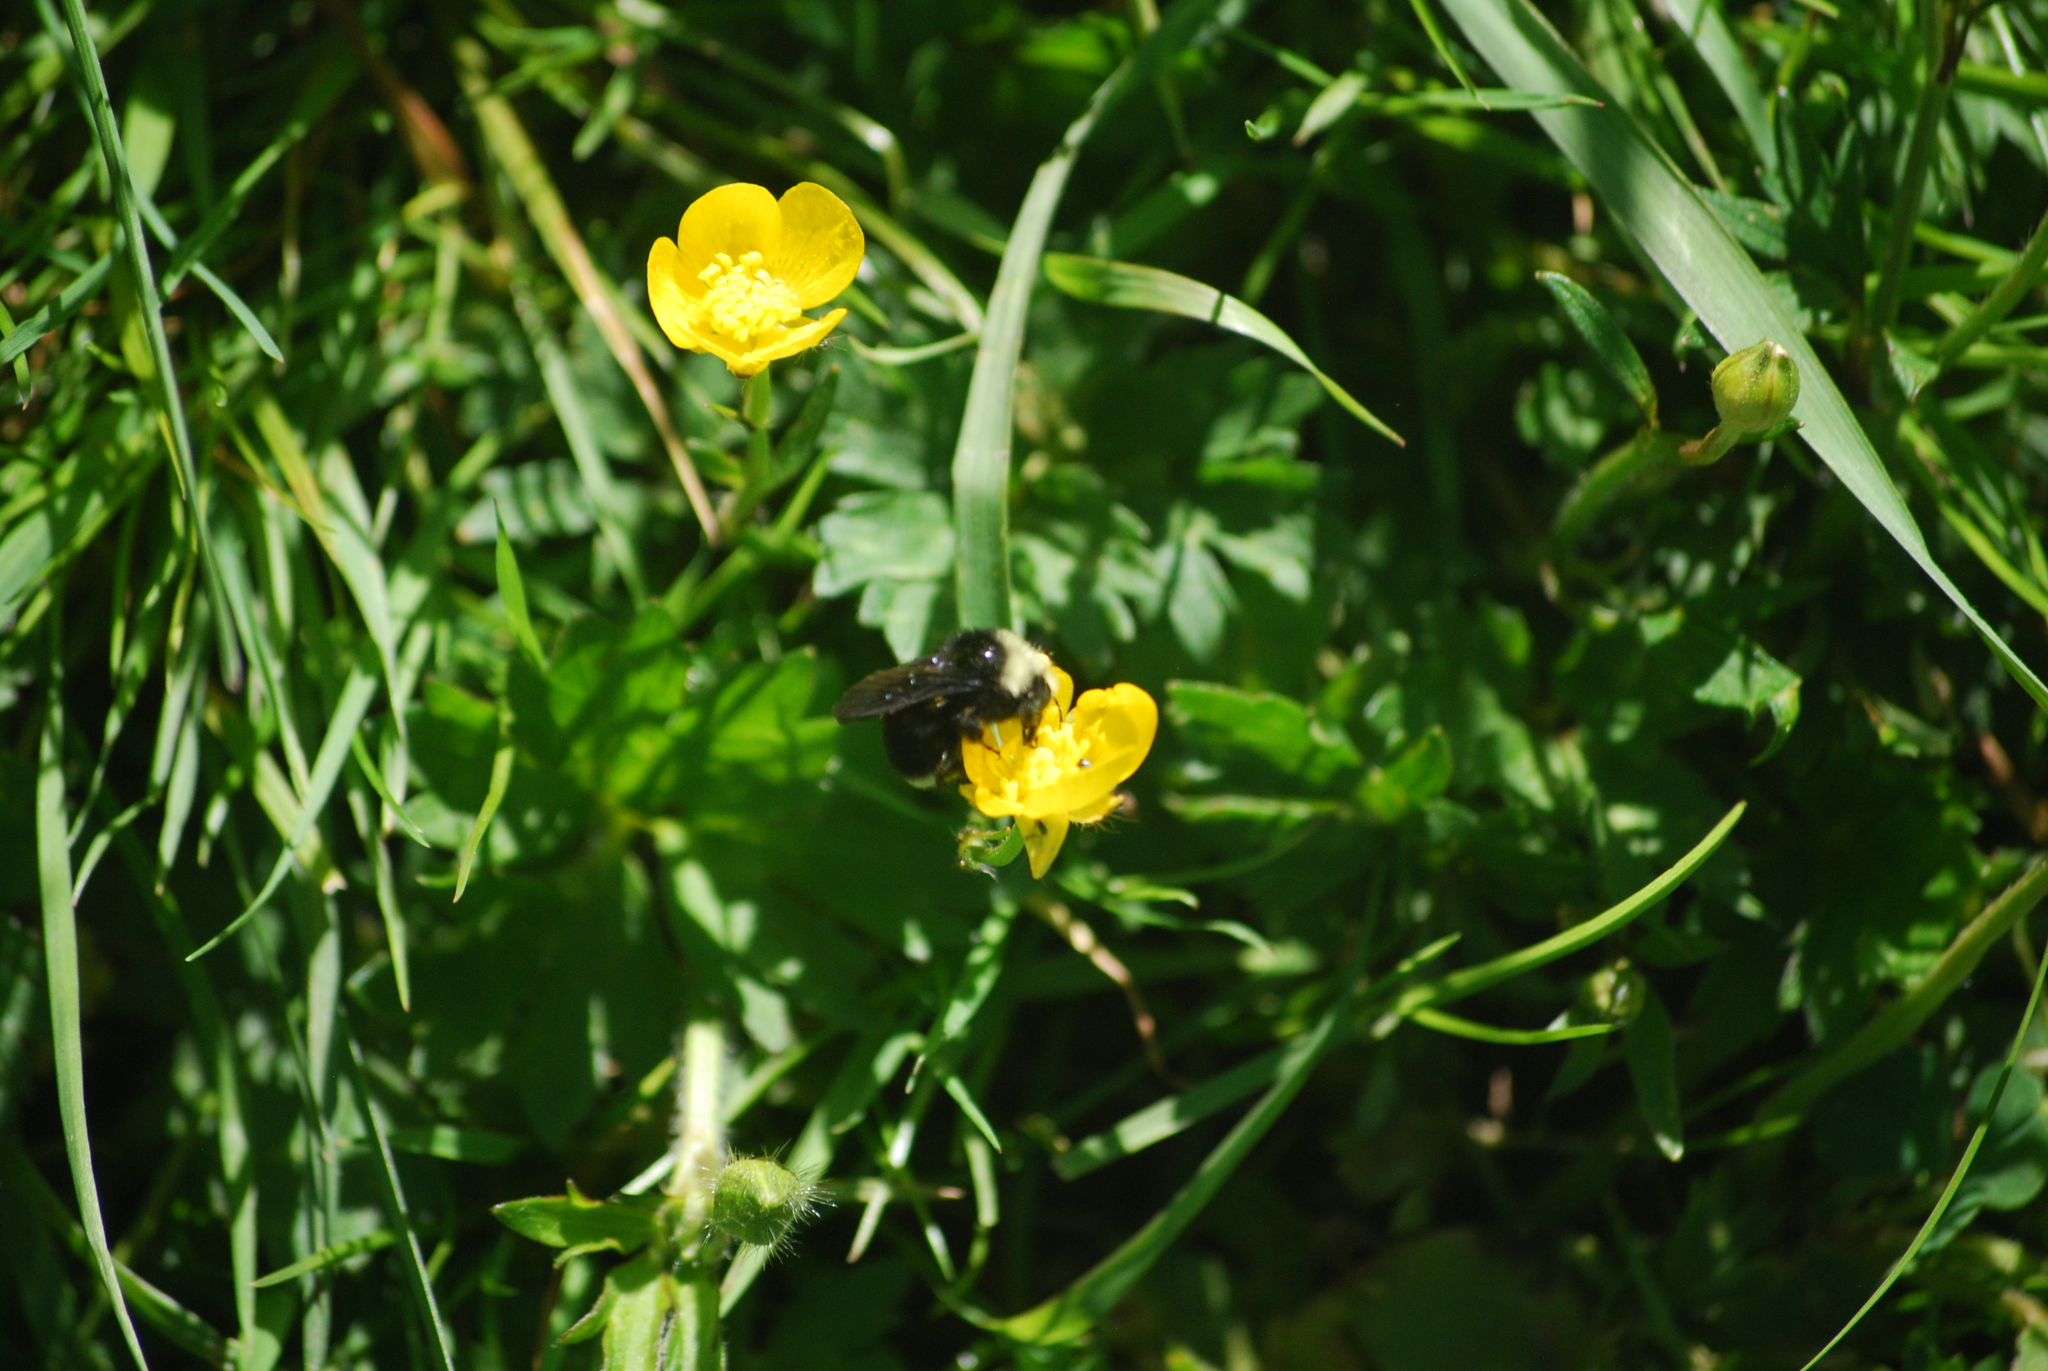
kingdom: Animalia
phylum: Arthropoda
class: Insecta
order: Hymenoptera
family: Apidae
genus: Bombus
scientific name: Bombus vosnesenskii
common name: Vosnesensky bumble bee
